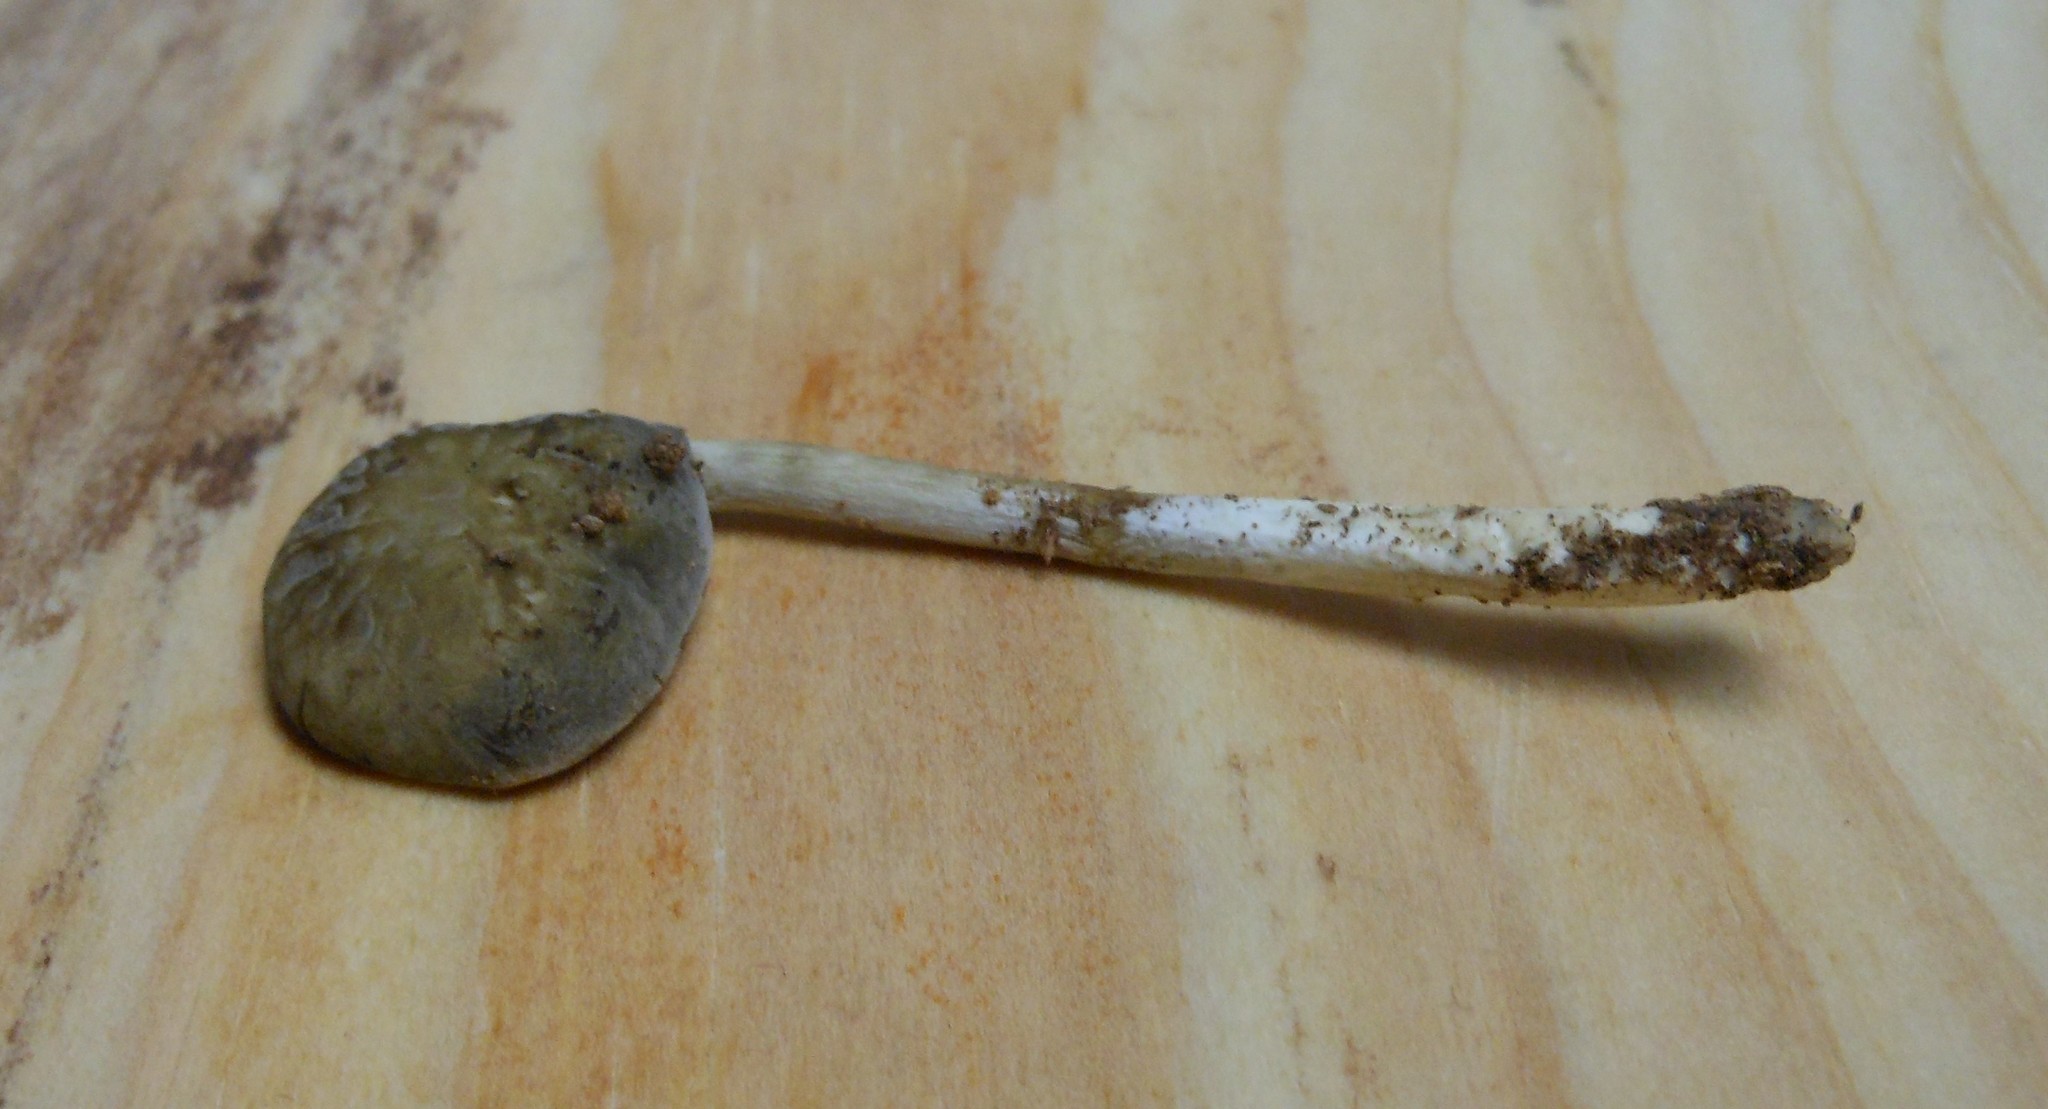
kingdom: Fungi
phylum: Basidiomycota
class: Agaricomycetes
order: Agaricales
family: Strophariaceae
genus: Agrocybe
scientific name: Agrocybe firma
